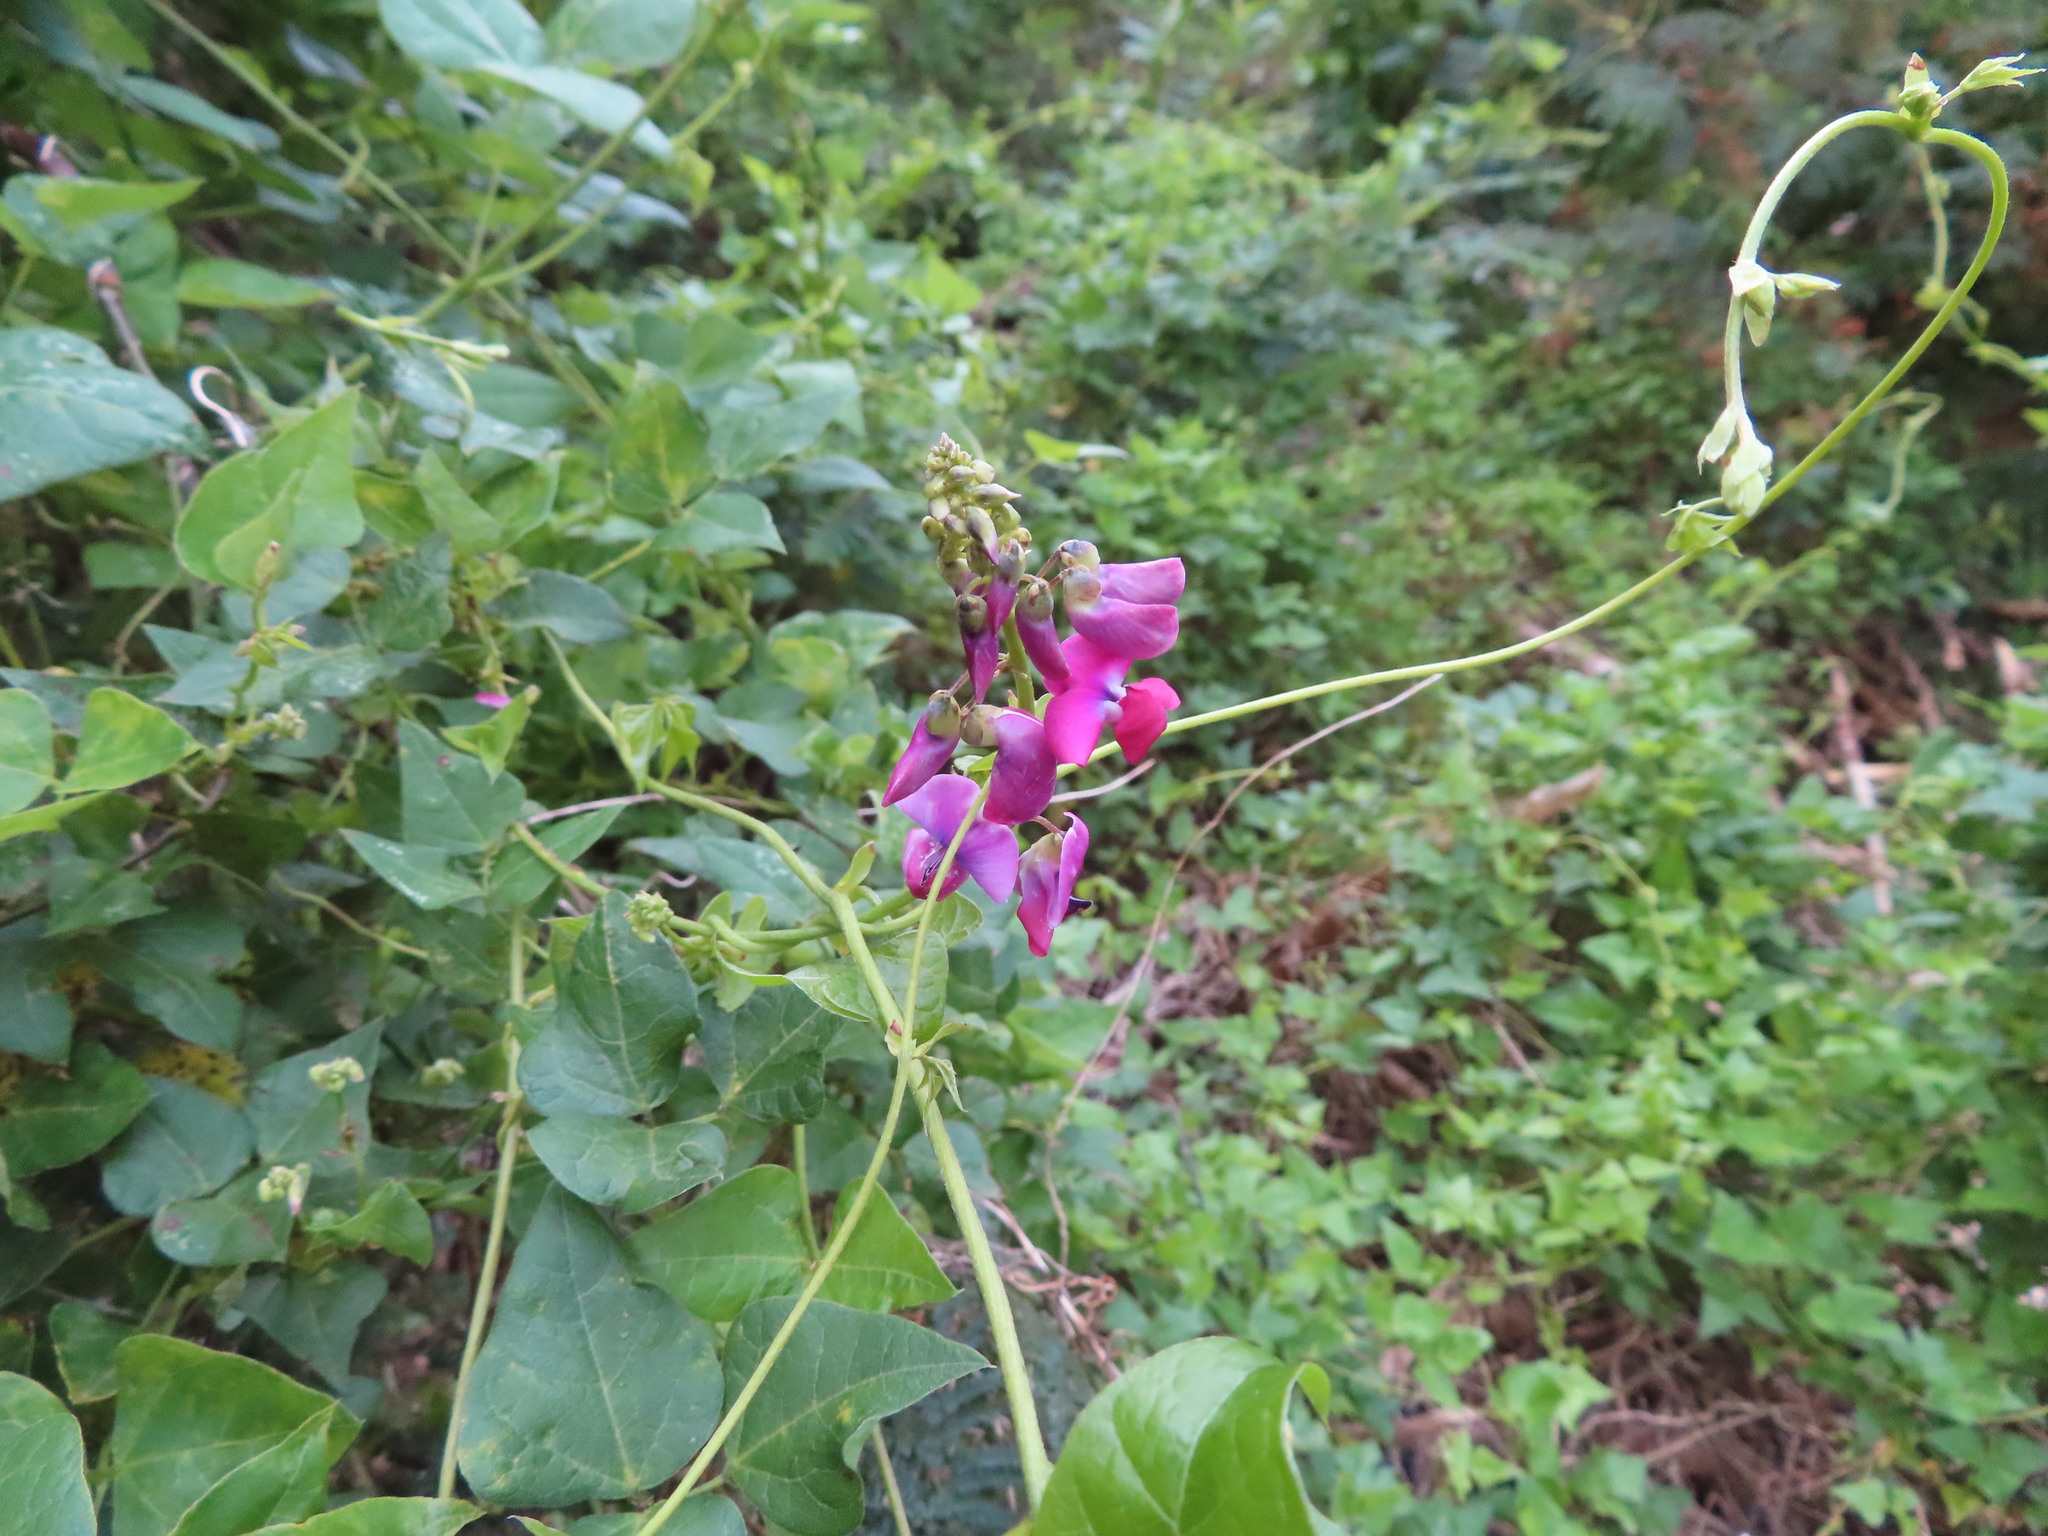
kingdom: Plantae
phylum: Tracheophyta
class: Magnoliopsida
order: Fabales
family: Fabaceae
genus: Dipogon
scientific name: Dipogon lignosus
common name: Okie bean
